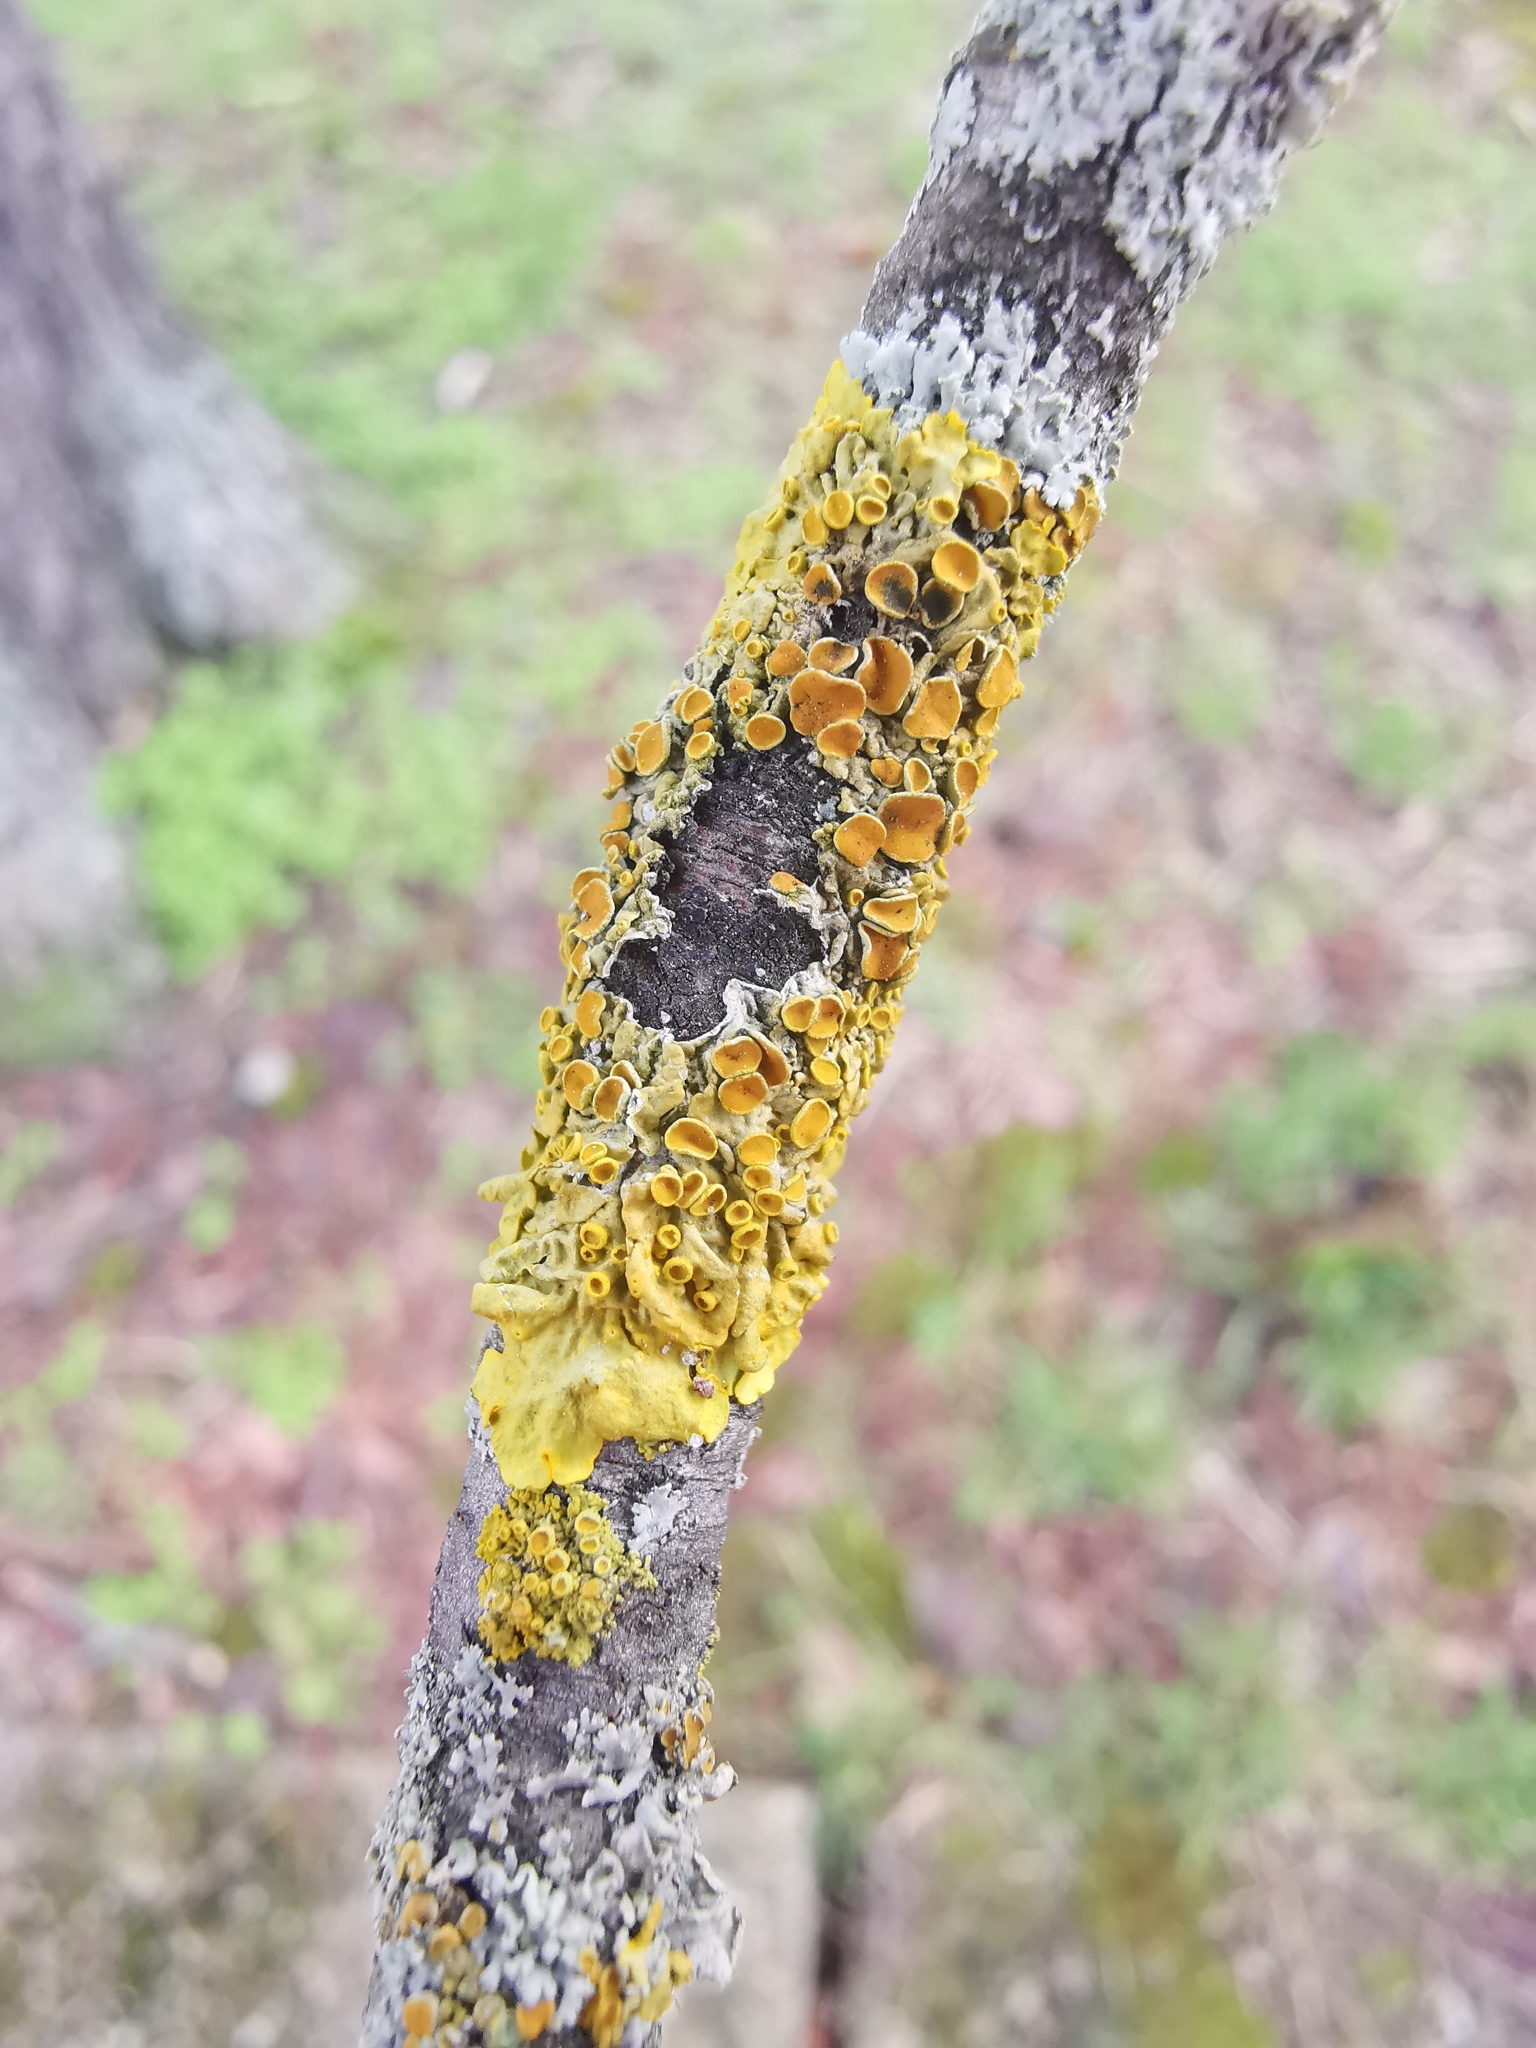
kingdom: Fungi
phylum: Ascomycota
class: Lecanoromycetes
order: Teloschistales
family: Teloschistaceae
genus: Xanthoria
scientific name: Xanthoria parietina
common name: Common orange lichen
